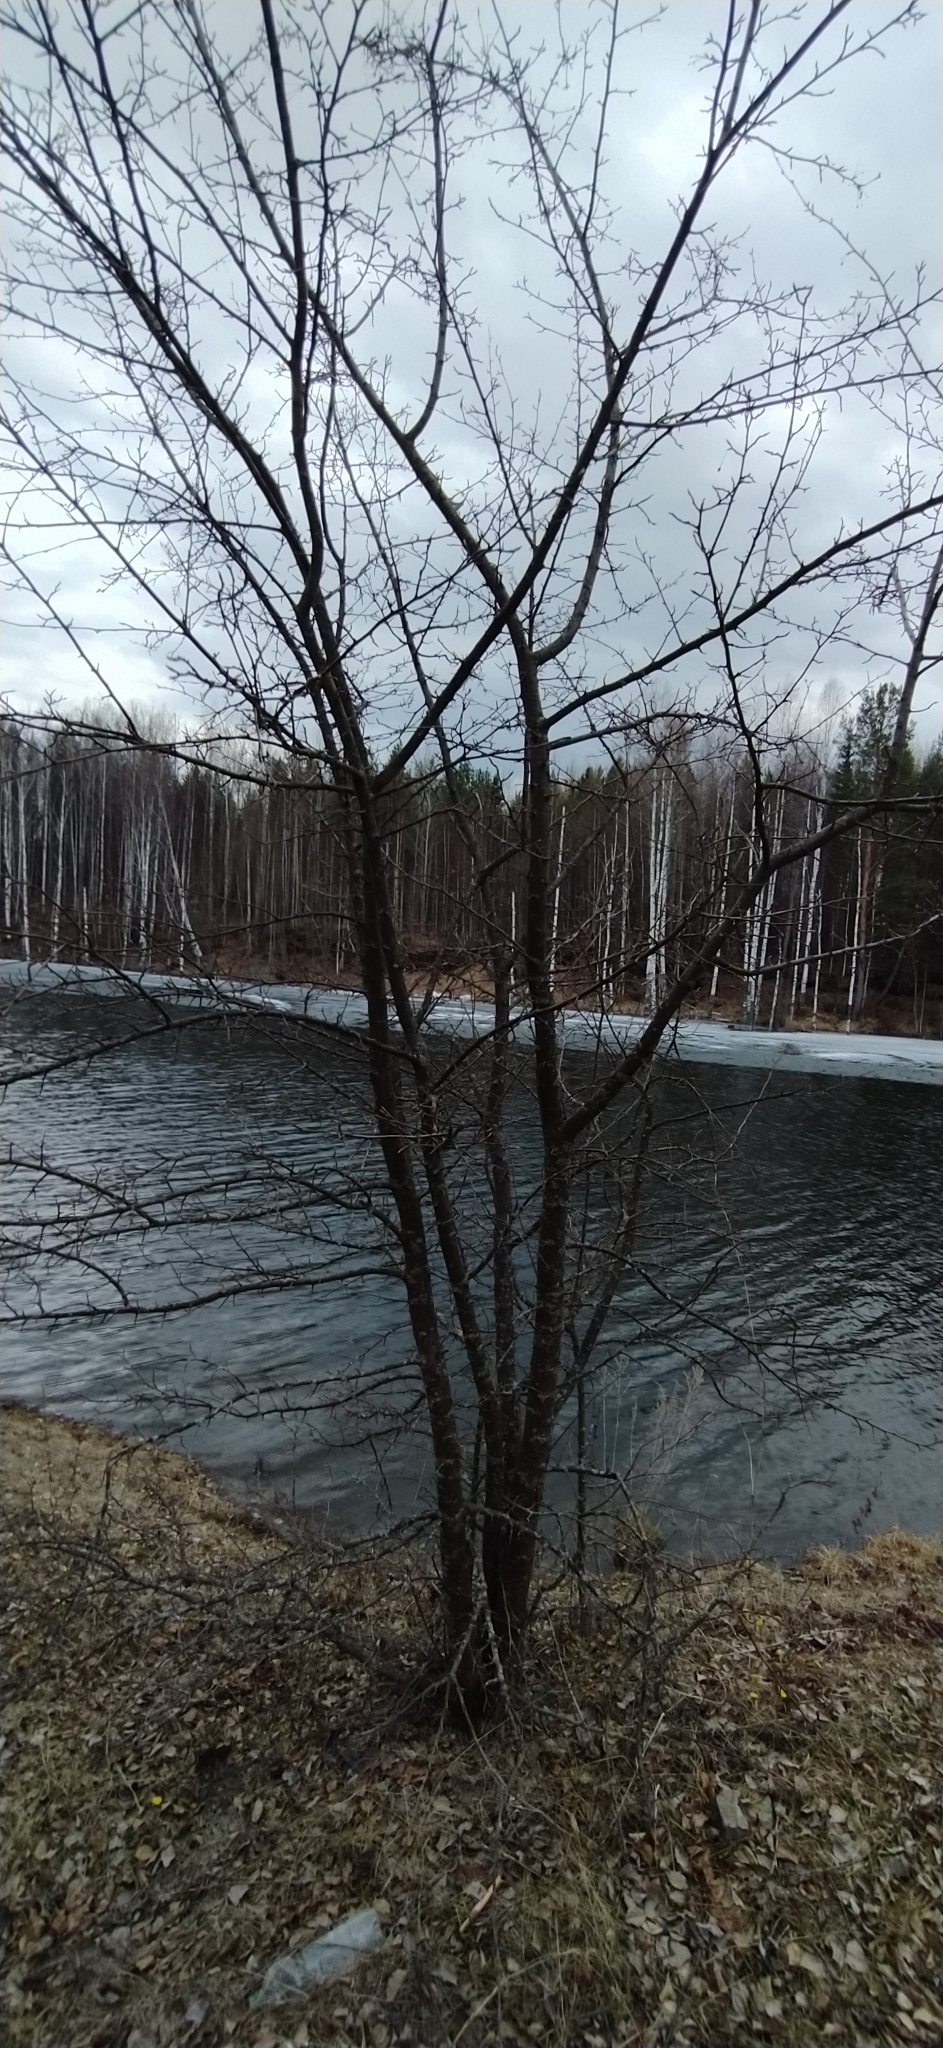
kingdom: Plantae
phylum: Tracheophyta
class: Magnoliopsida
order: Rosales
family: Rosaceae
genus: Malus
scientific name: Malus baccata
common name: Siberian crab
